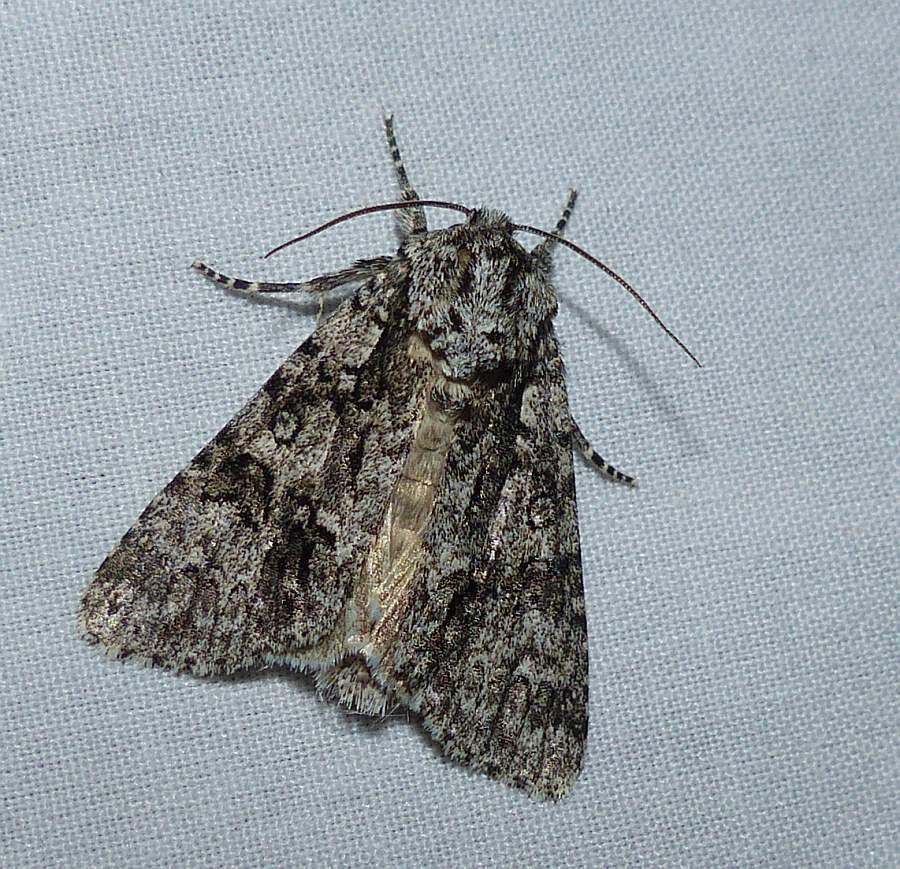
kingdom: Animalia
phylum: Arthropoda
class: Insecta
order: Lepidoptera
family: Noctuidae
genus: Acronicta
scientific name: Acronicta impressa
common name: Impressed dagger
